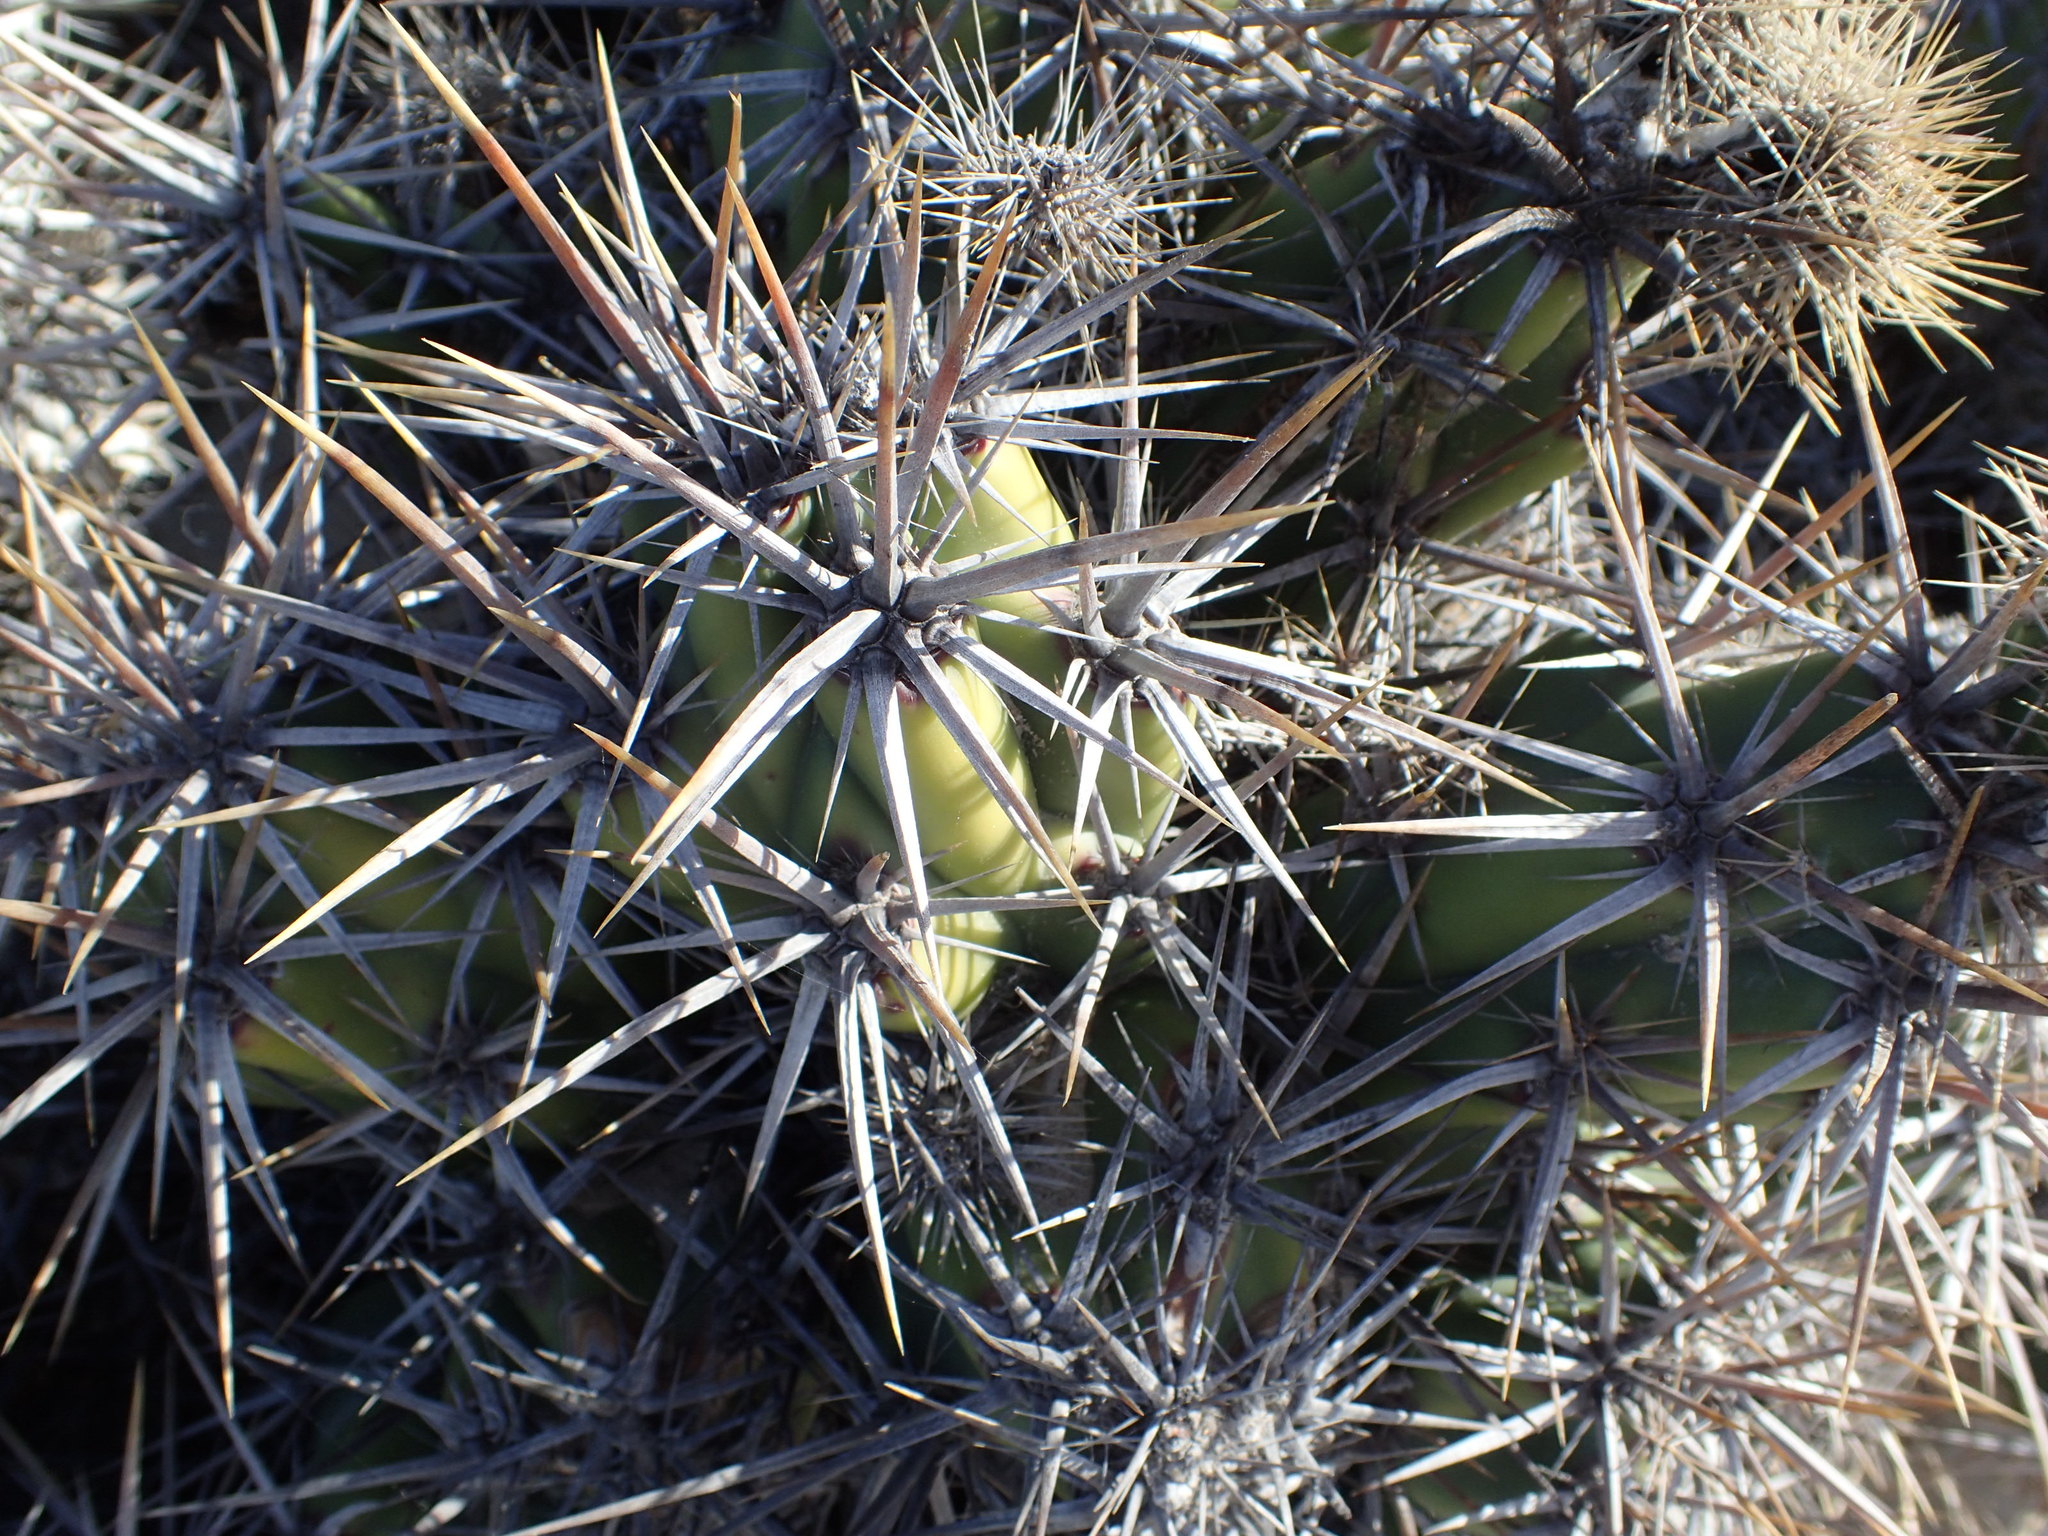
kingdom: Plantae
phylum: Tracheophyta
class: Magnoliopsida
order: Caryophyllales
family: Cactaceae
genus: Grusonia
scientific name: Grusonia invicta
